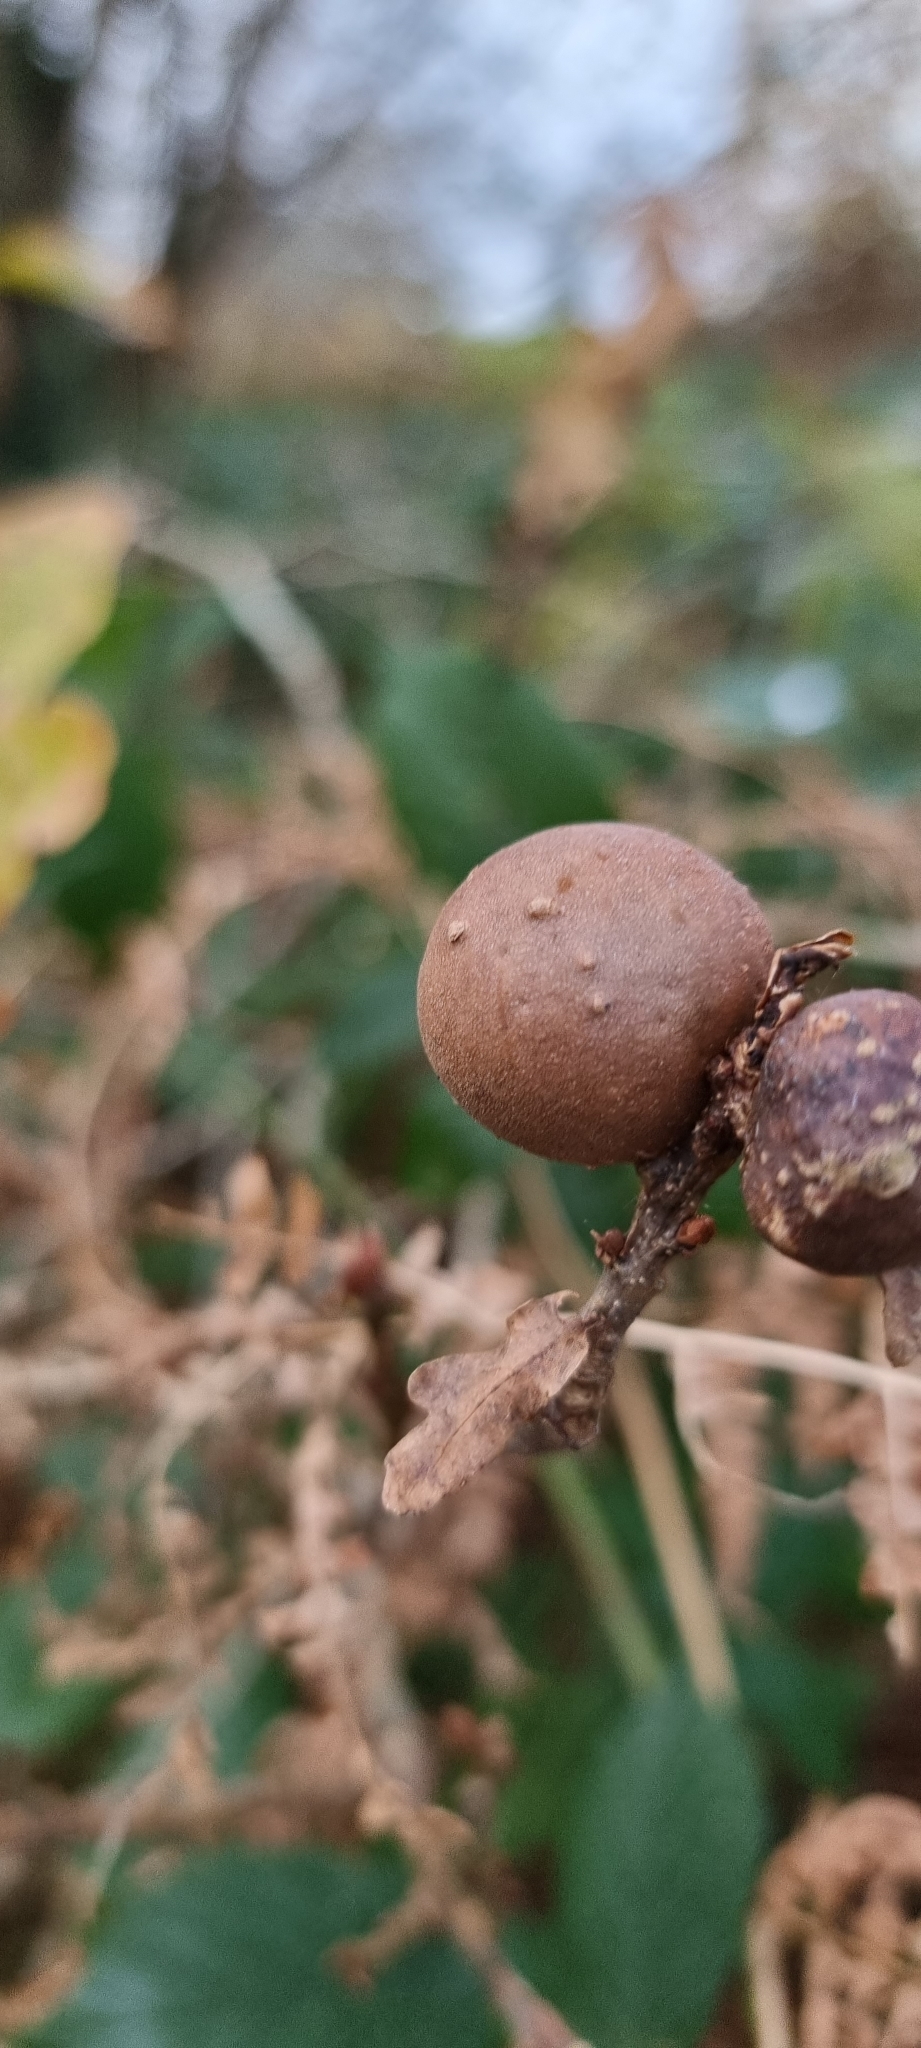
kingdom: Animalia
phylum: Arthropoda
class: Insecta
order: Hymenoptera
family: Cynipidae
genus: Andricus
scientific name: Andricus kollari
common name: Marble gall
